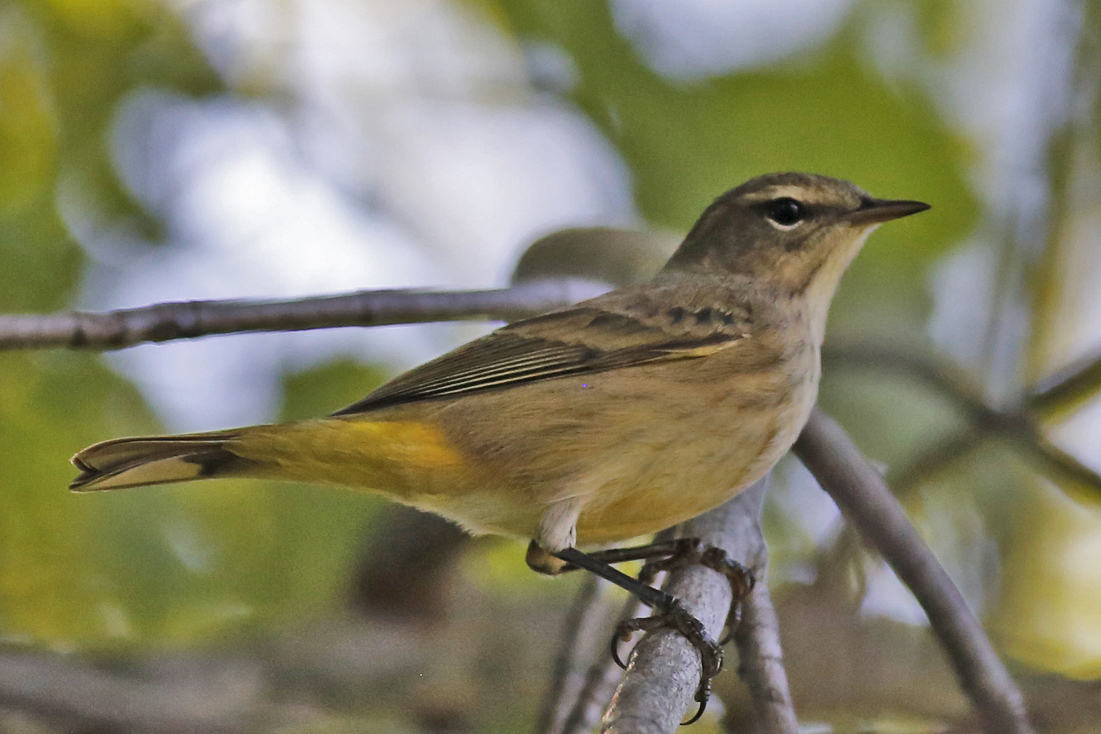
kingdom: Animalia
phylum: Chordata
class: Aves
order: Passeriformes
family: Parulidae
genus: Setophaga
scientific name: Setophaga palmarum
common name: Palm warbler
